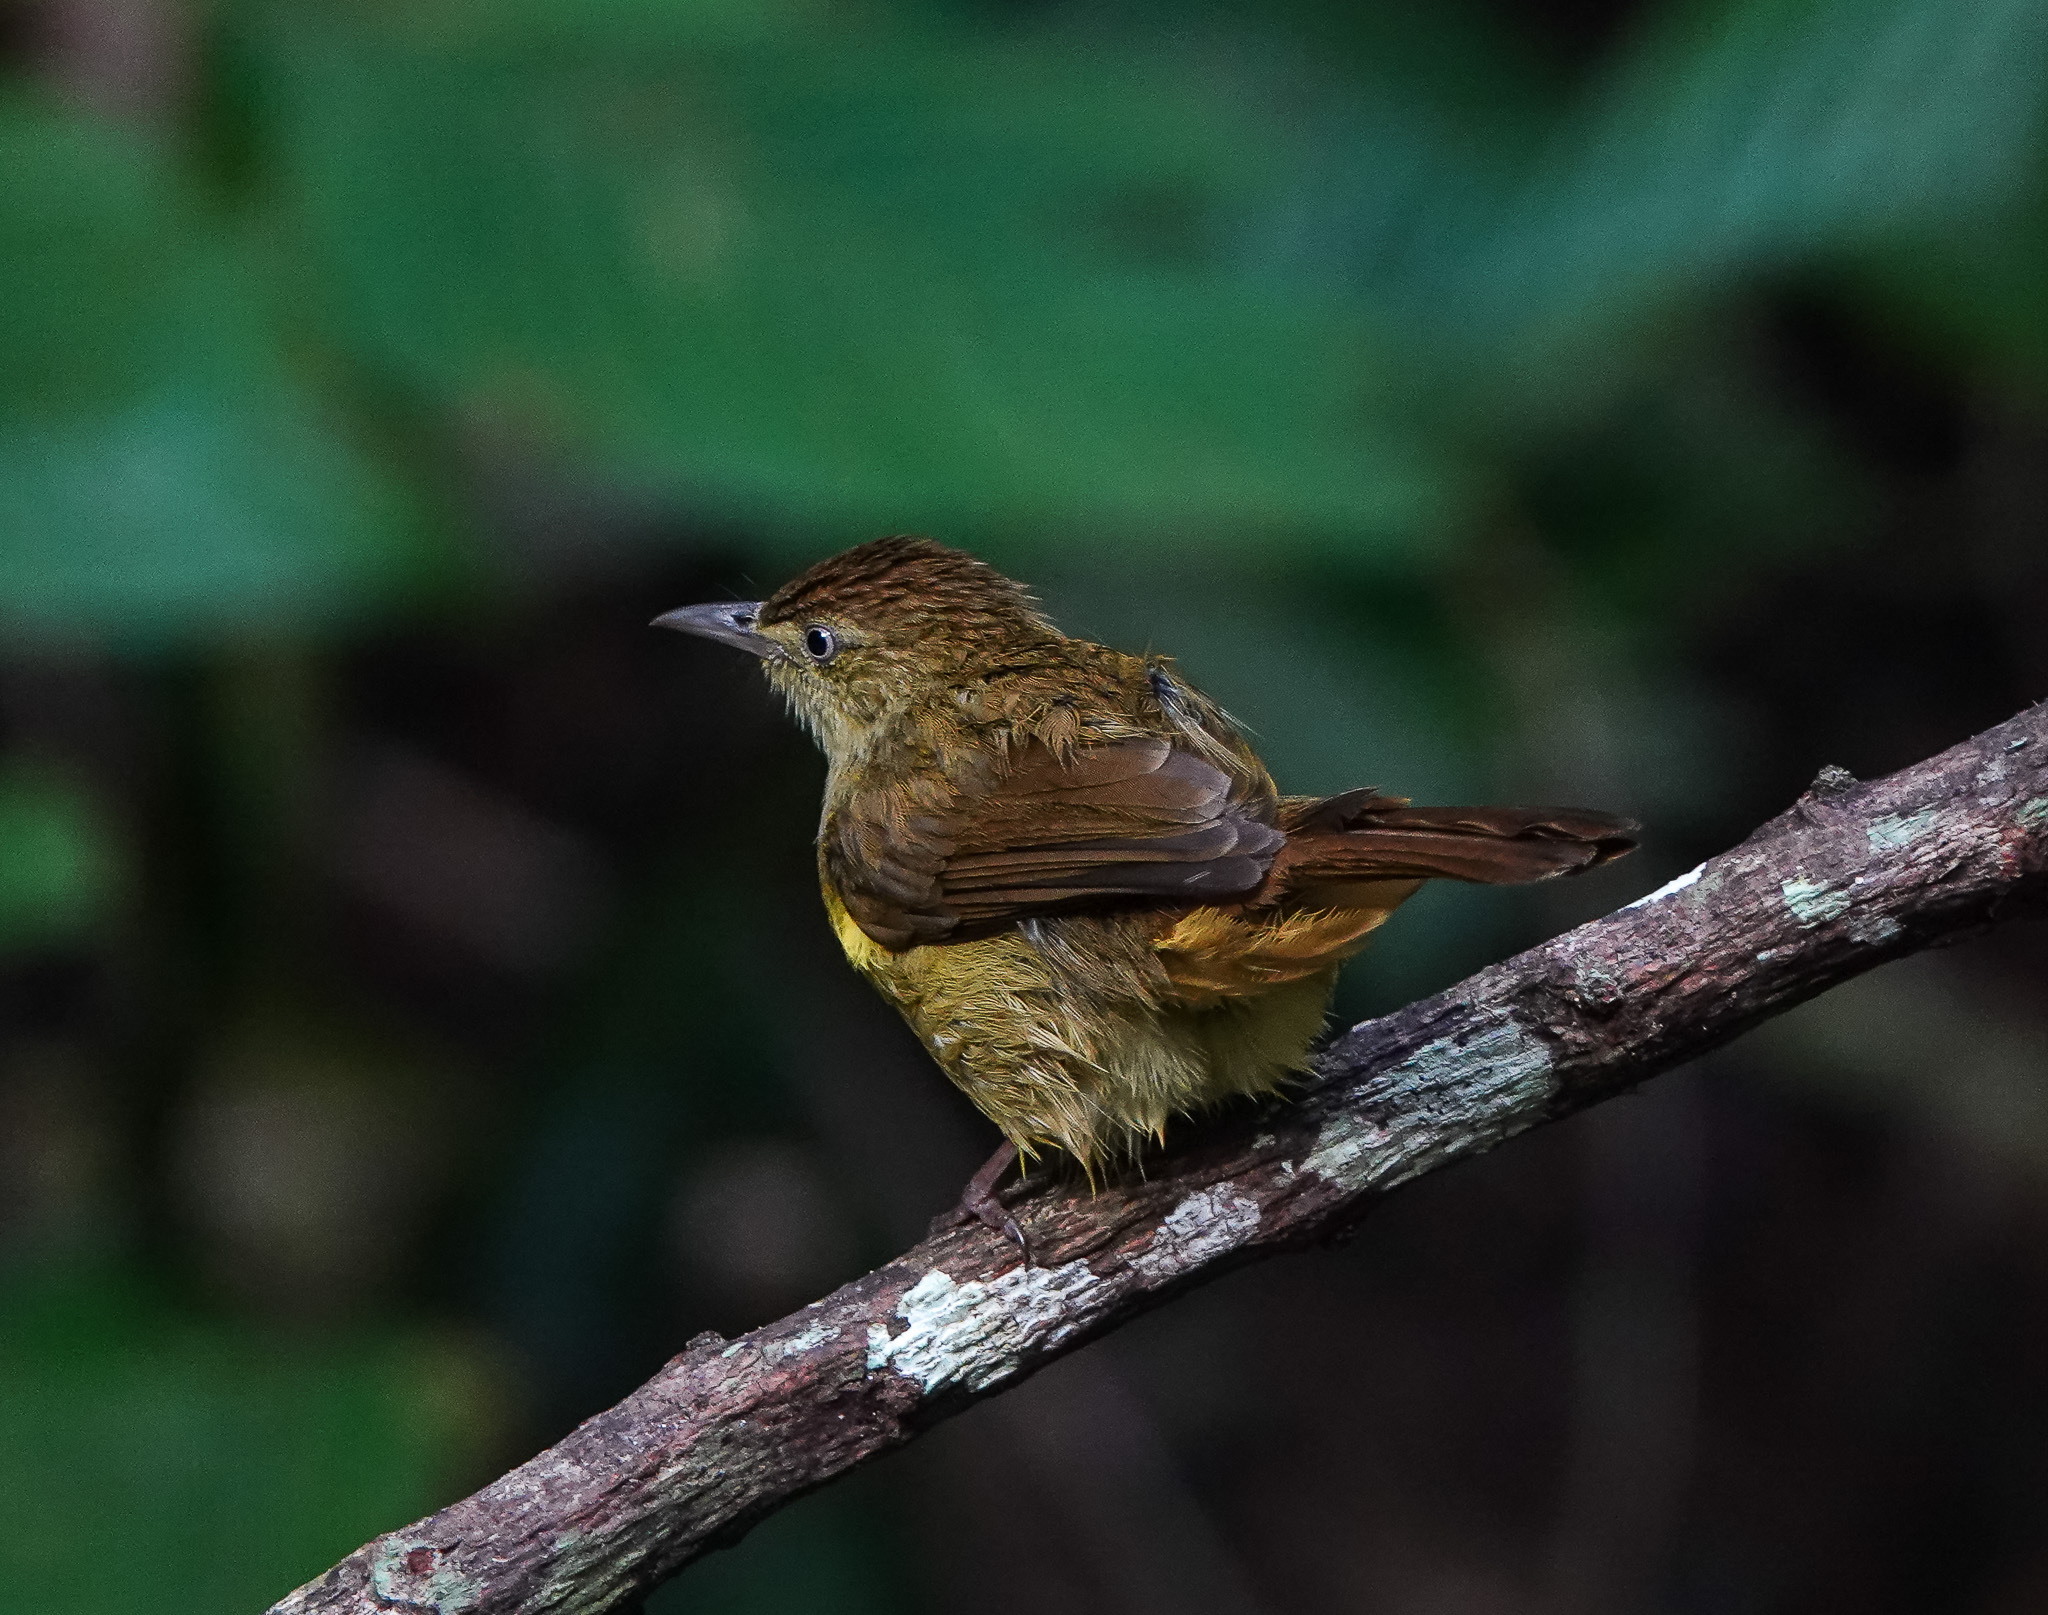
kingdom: Animalia
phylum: Chordata
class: Aves
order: Passeriformes
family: Pycnonotidae
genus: Iole
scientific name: Iole virescens
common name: Olive bulbul
